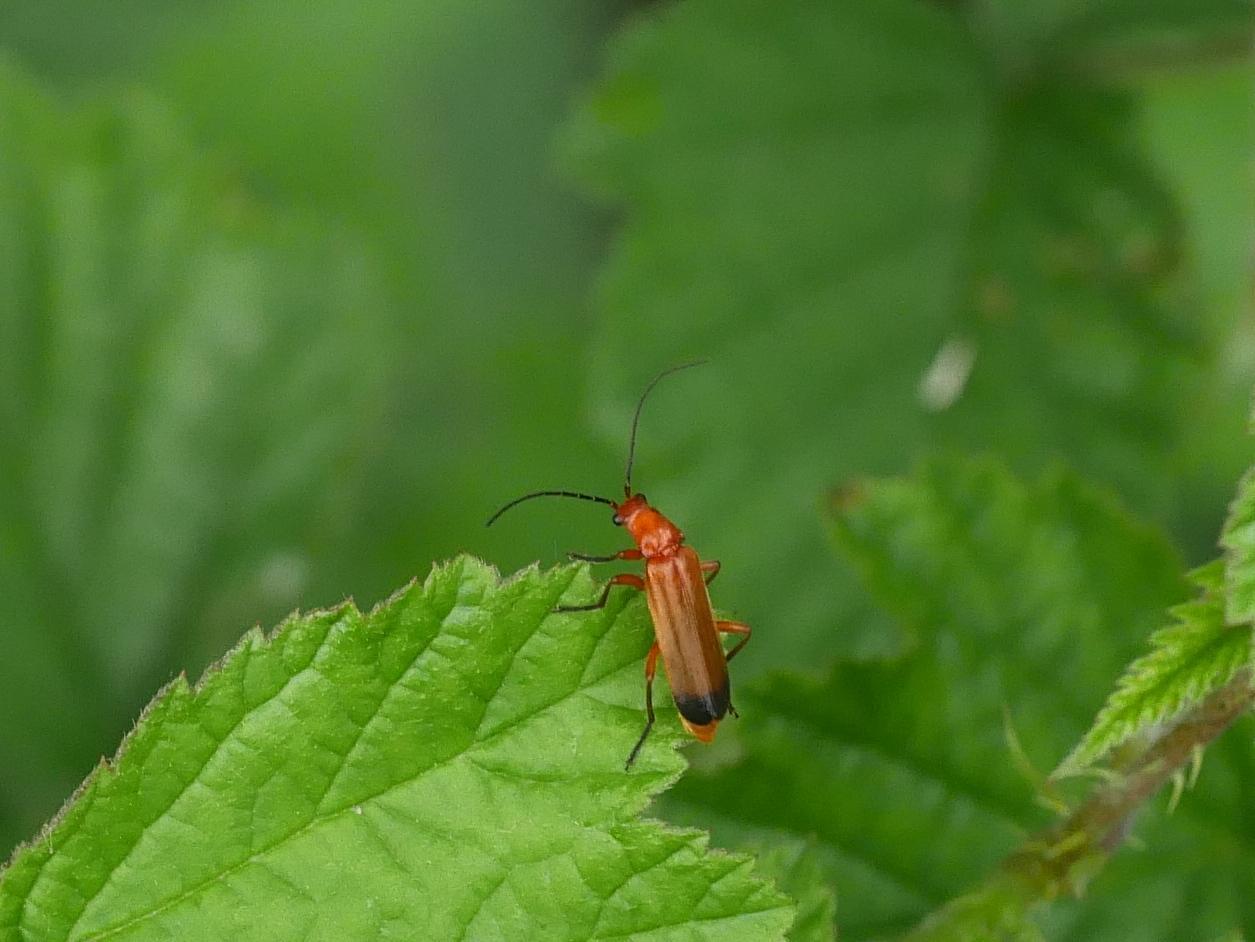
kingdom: Animalia
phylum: Arthropoda
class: Insecta
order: Coleoptera
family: Cantharidae
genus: Rhagonycha
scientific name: Rhagonycha fulva
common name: Common red soldier beetle
